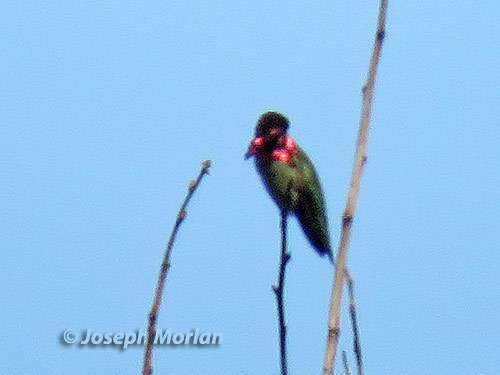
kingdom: Animalia
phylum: Chordata
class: Aves
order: Apodiformes
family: Trochilidae
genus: Calypte
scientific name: Calypte anna
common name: Anna's hummingbird
